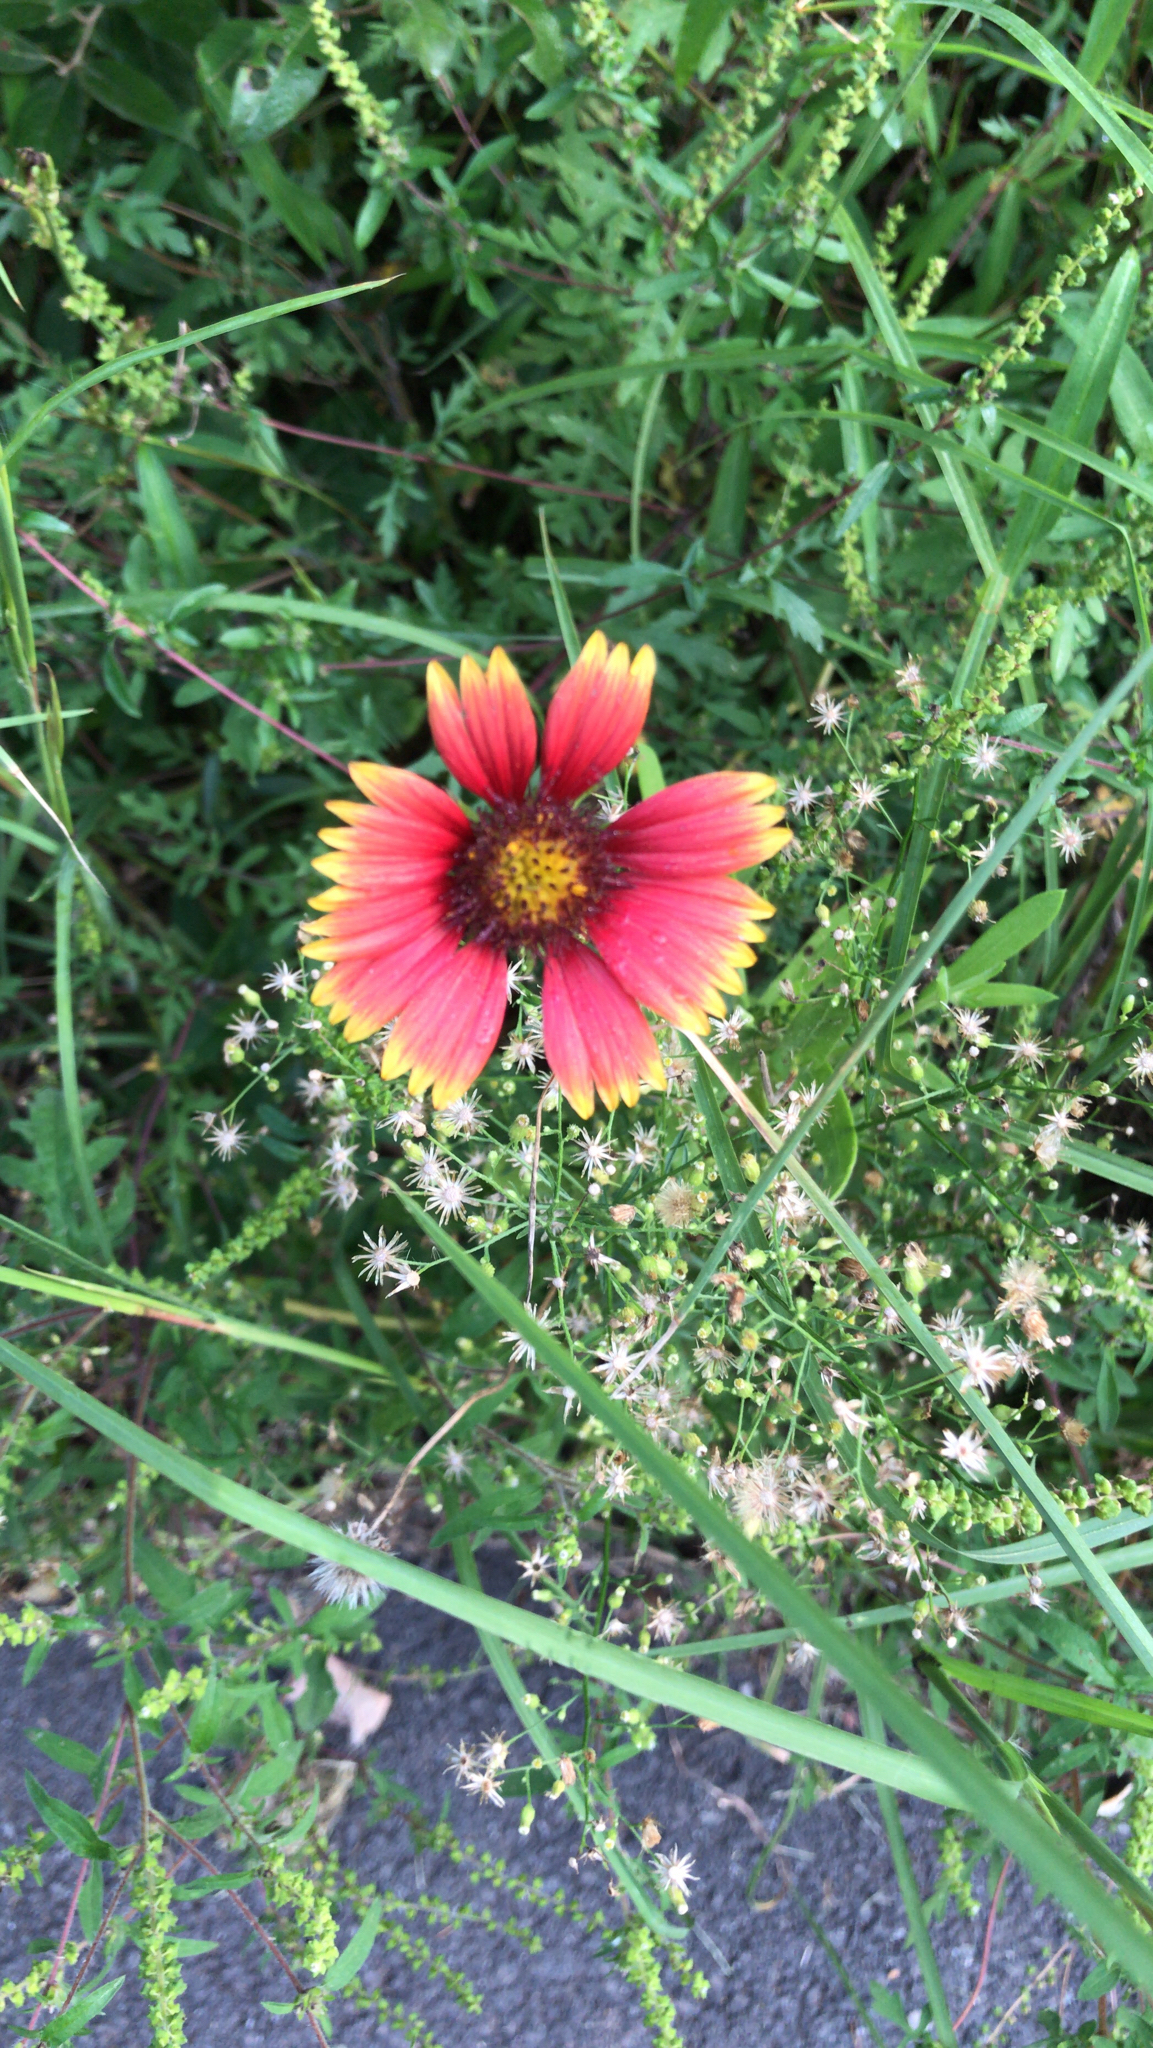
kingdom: Plantae
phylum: Tracheophyta
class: Magnoliopsida
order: Asterales
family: Asteraceae
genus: Gaillardia
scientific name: Gaillardia pulchella
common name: Firewheel
